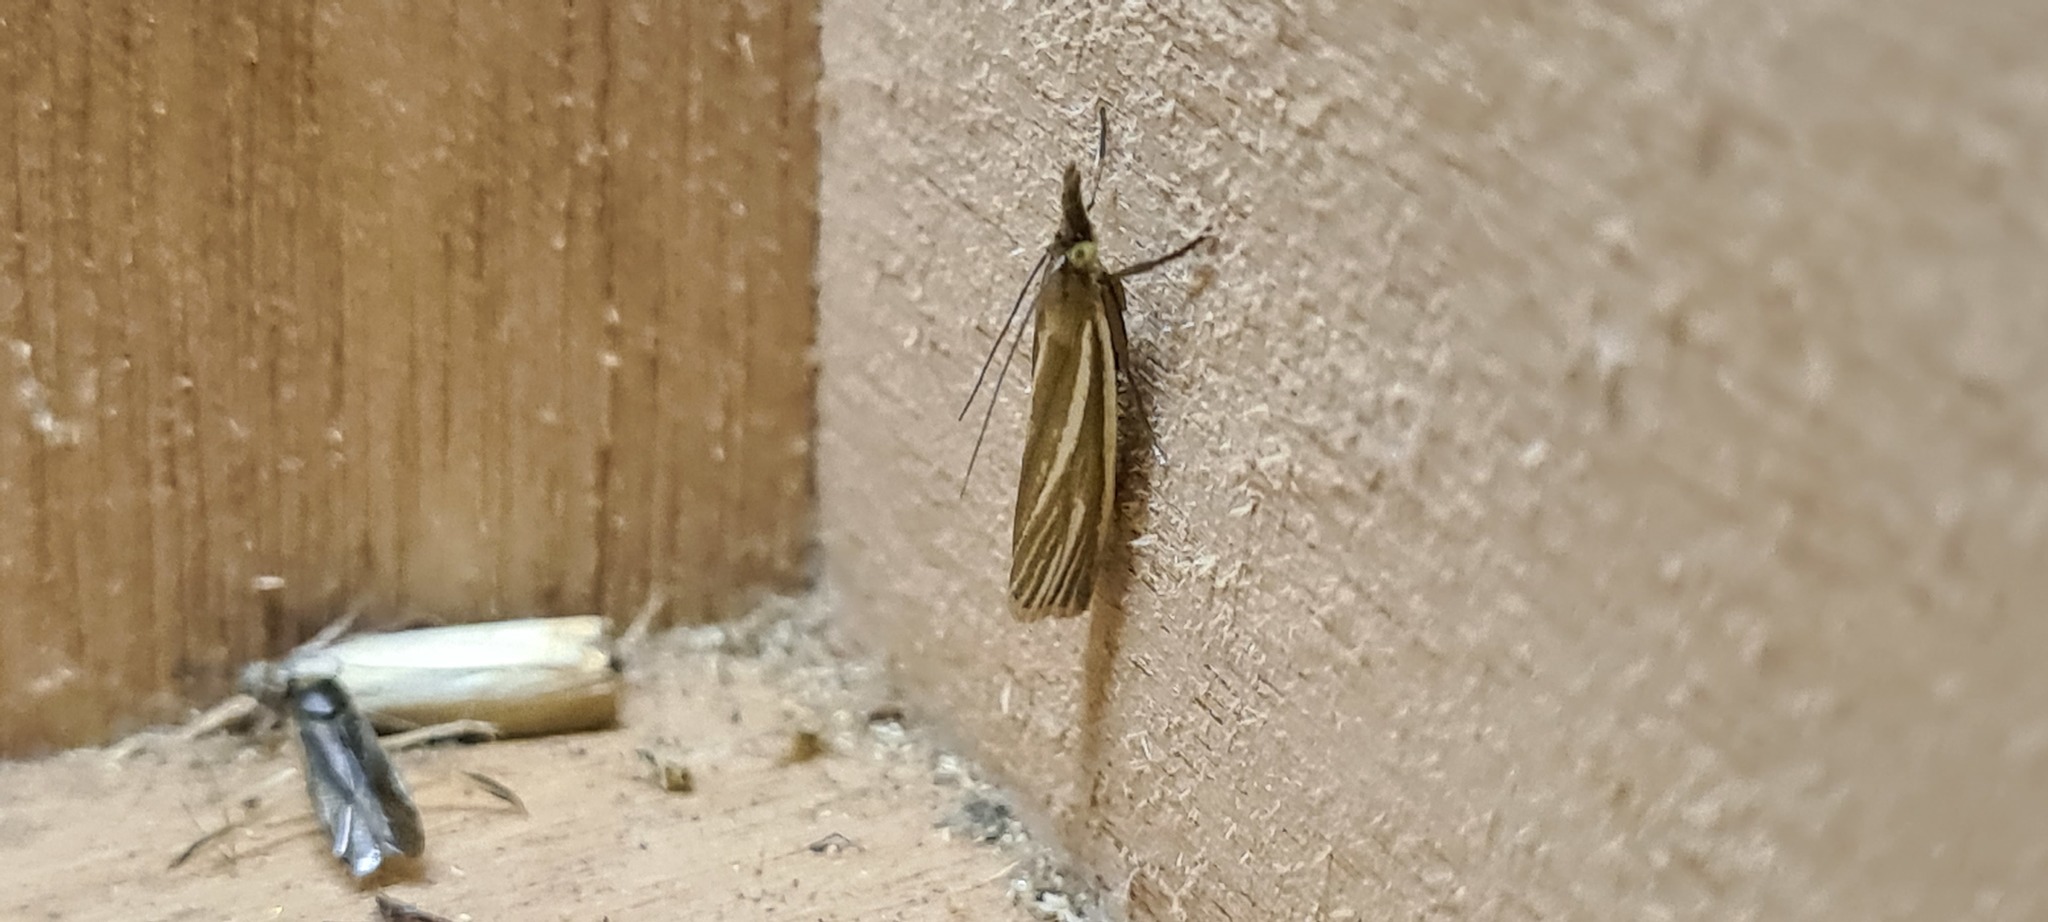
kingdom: Animalia
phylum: Arthropoda
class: Insecta
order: Lepidoptera
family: Crambidae
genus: Crambus
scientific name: Crambus perlellus
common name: Yellow satin veneer
